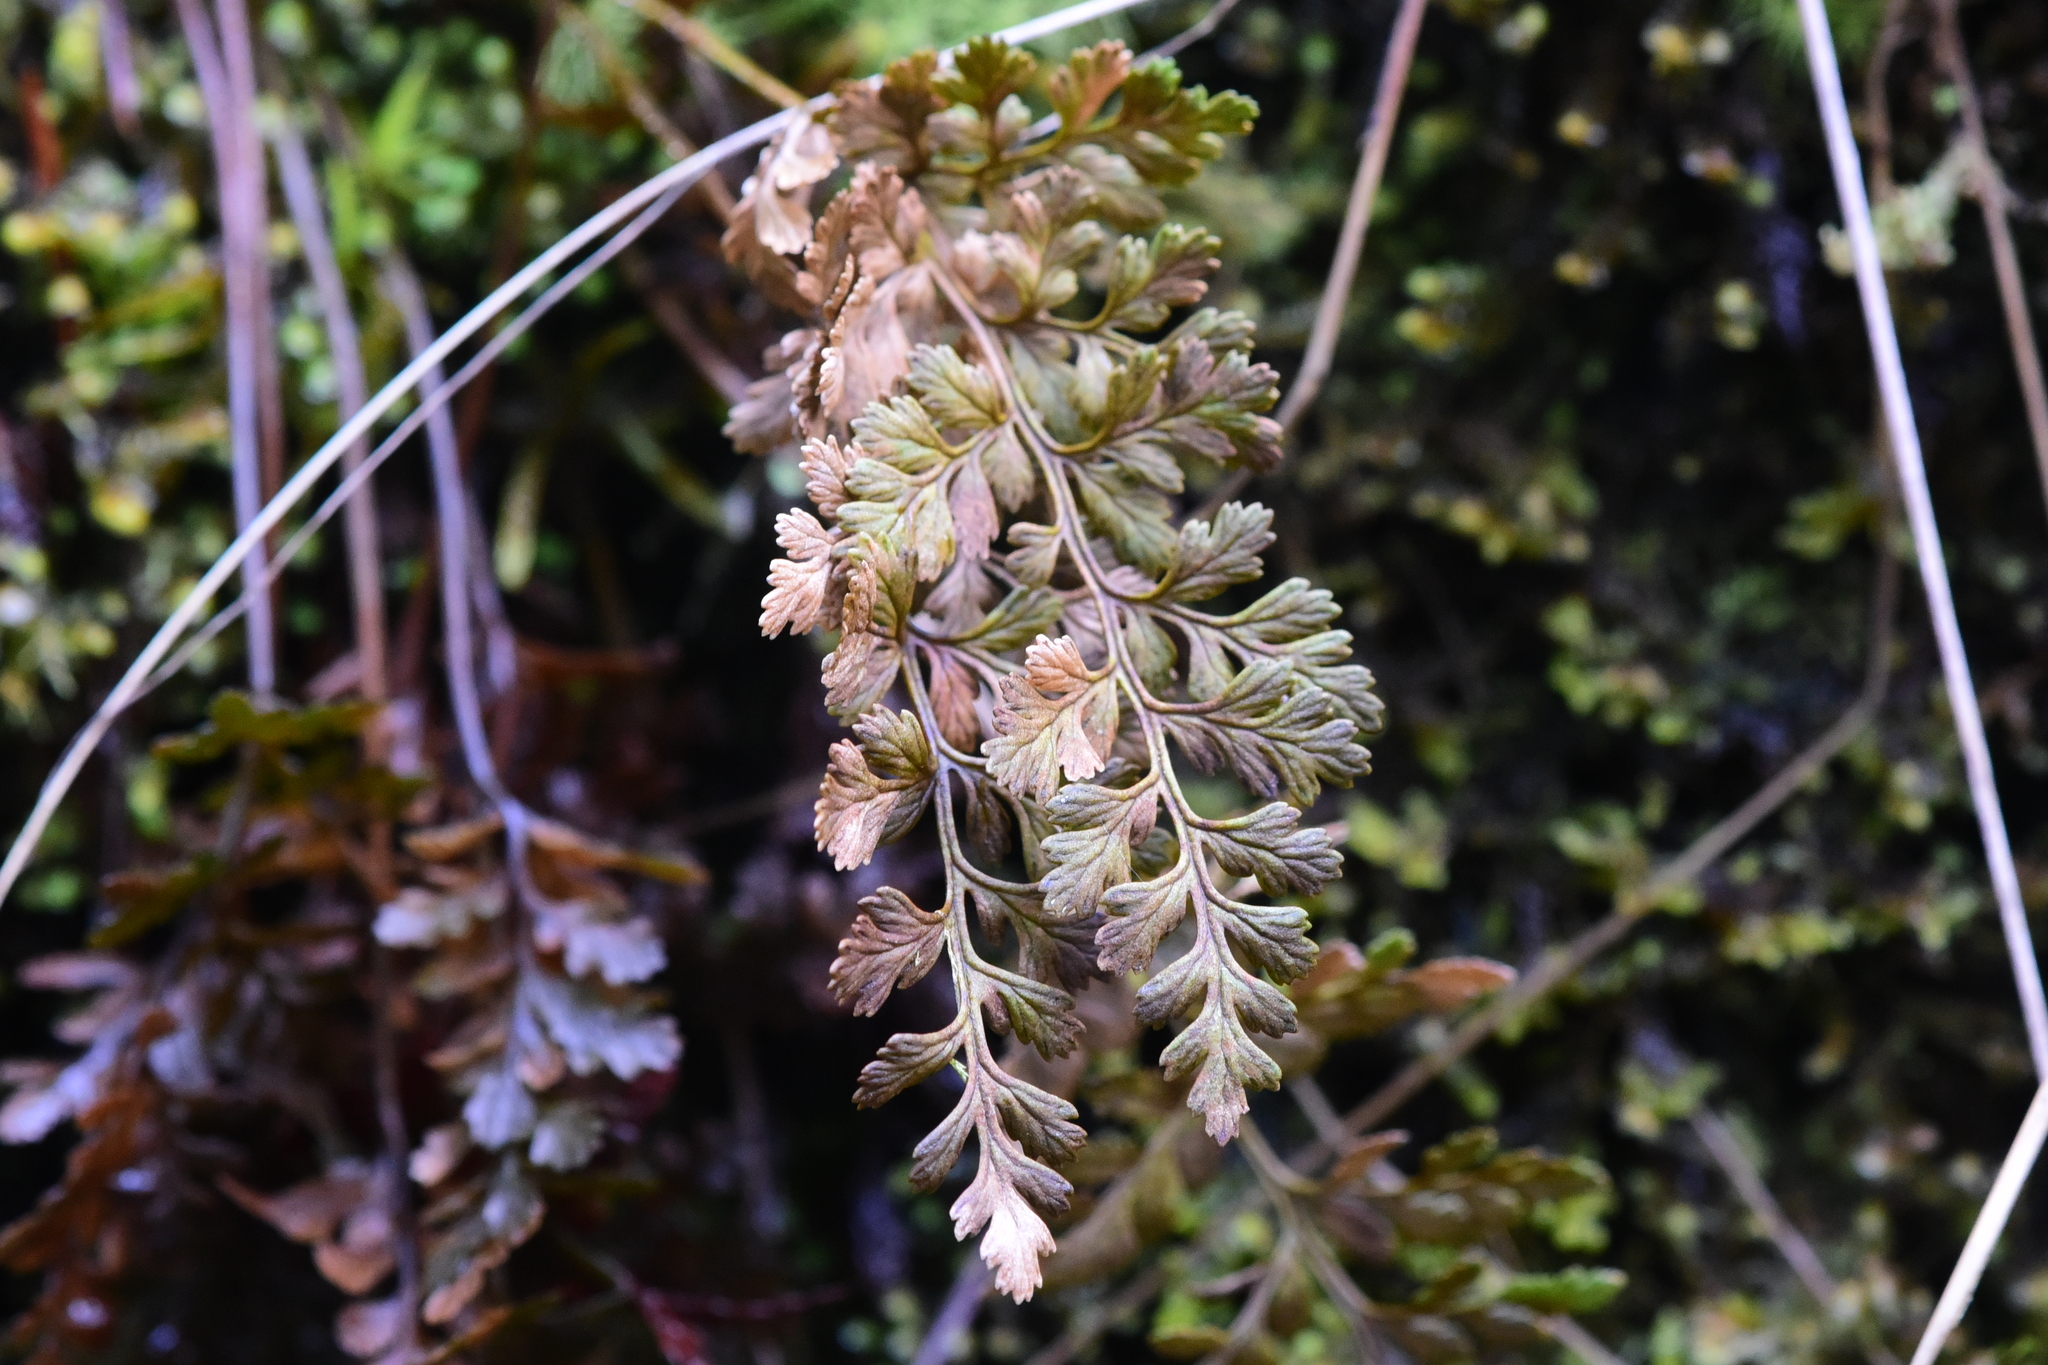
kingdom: Plantae
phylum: Tracheophyta
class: Polypodiopsida
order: Polypodiales
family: Pteridaceae
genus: Cryptogramma
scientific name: Cryptogramma acrostichoides
